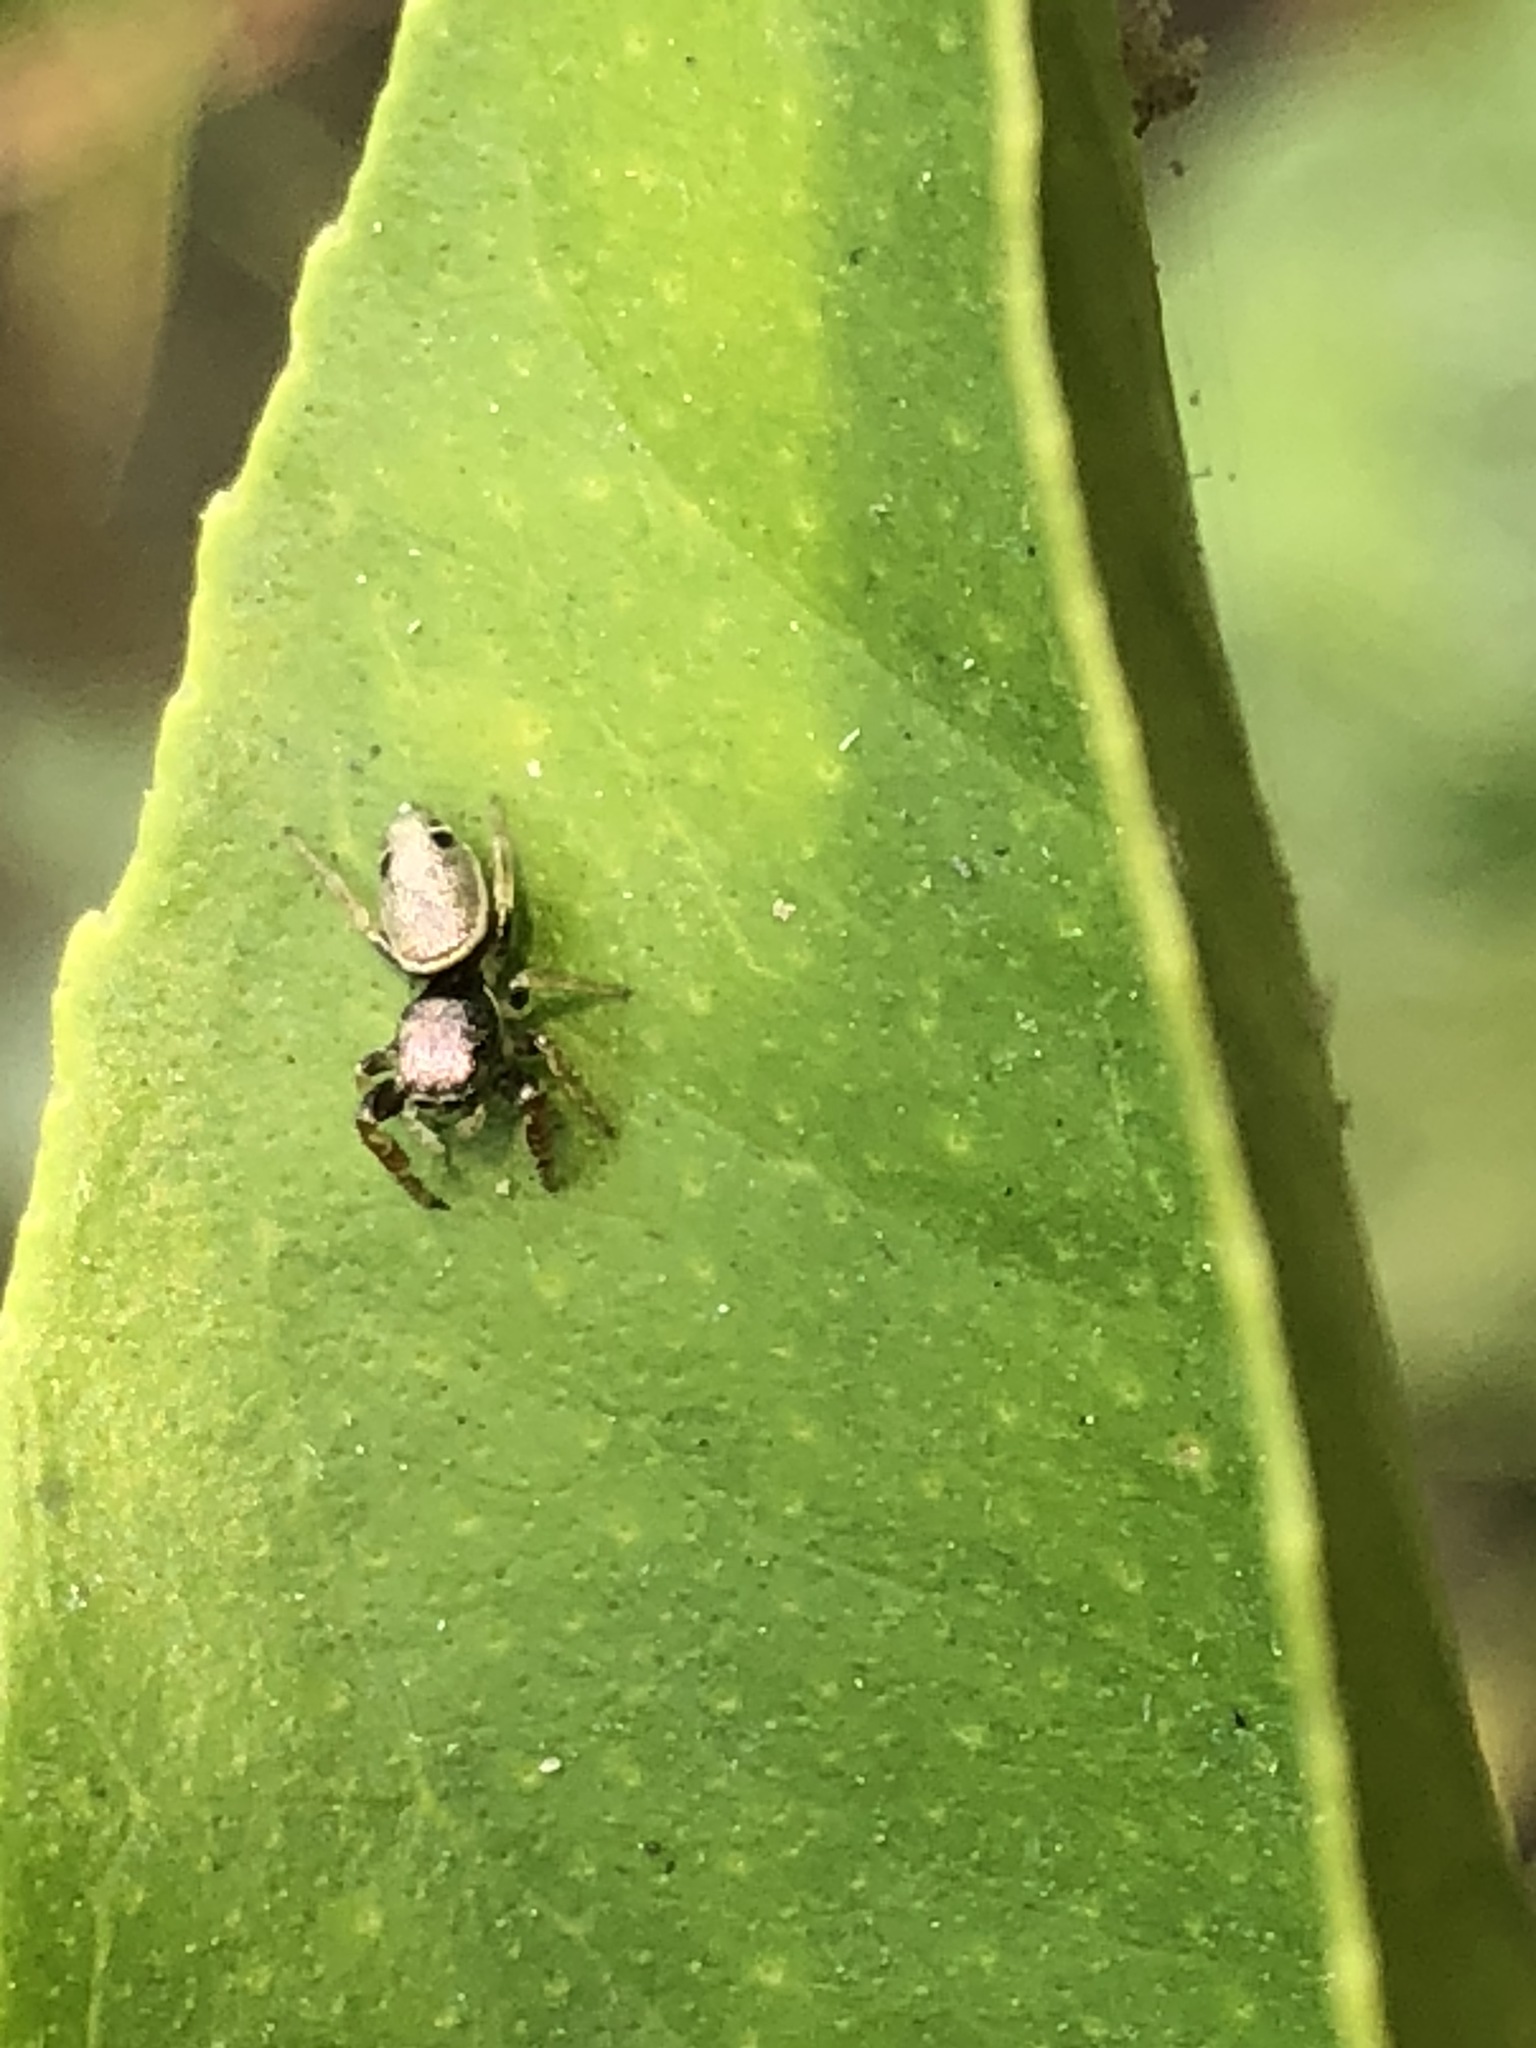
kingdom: Animalia
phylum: Arthropoda
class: Arachnida
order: Araneae
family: Salticidae
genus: Sassacus
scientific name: Sassacus vitis
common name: Jumping spiders
